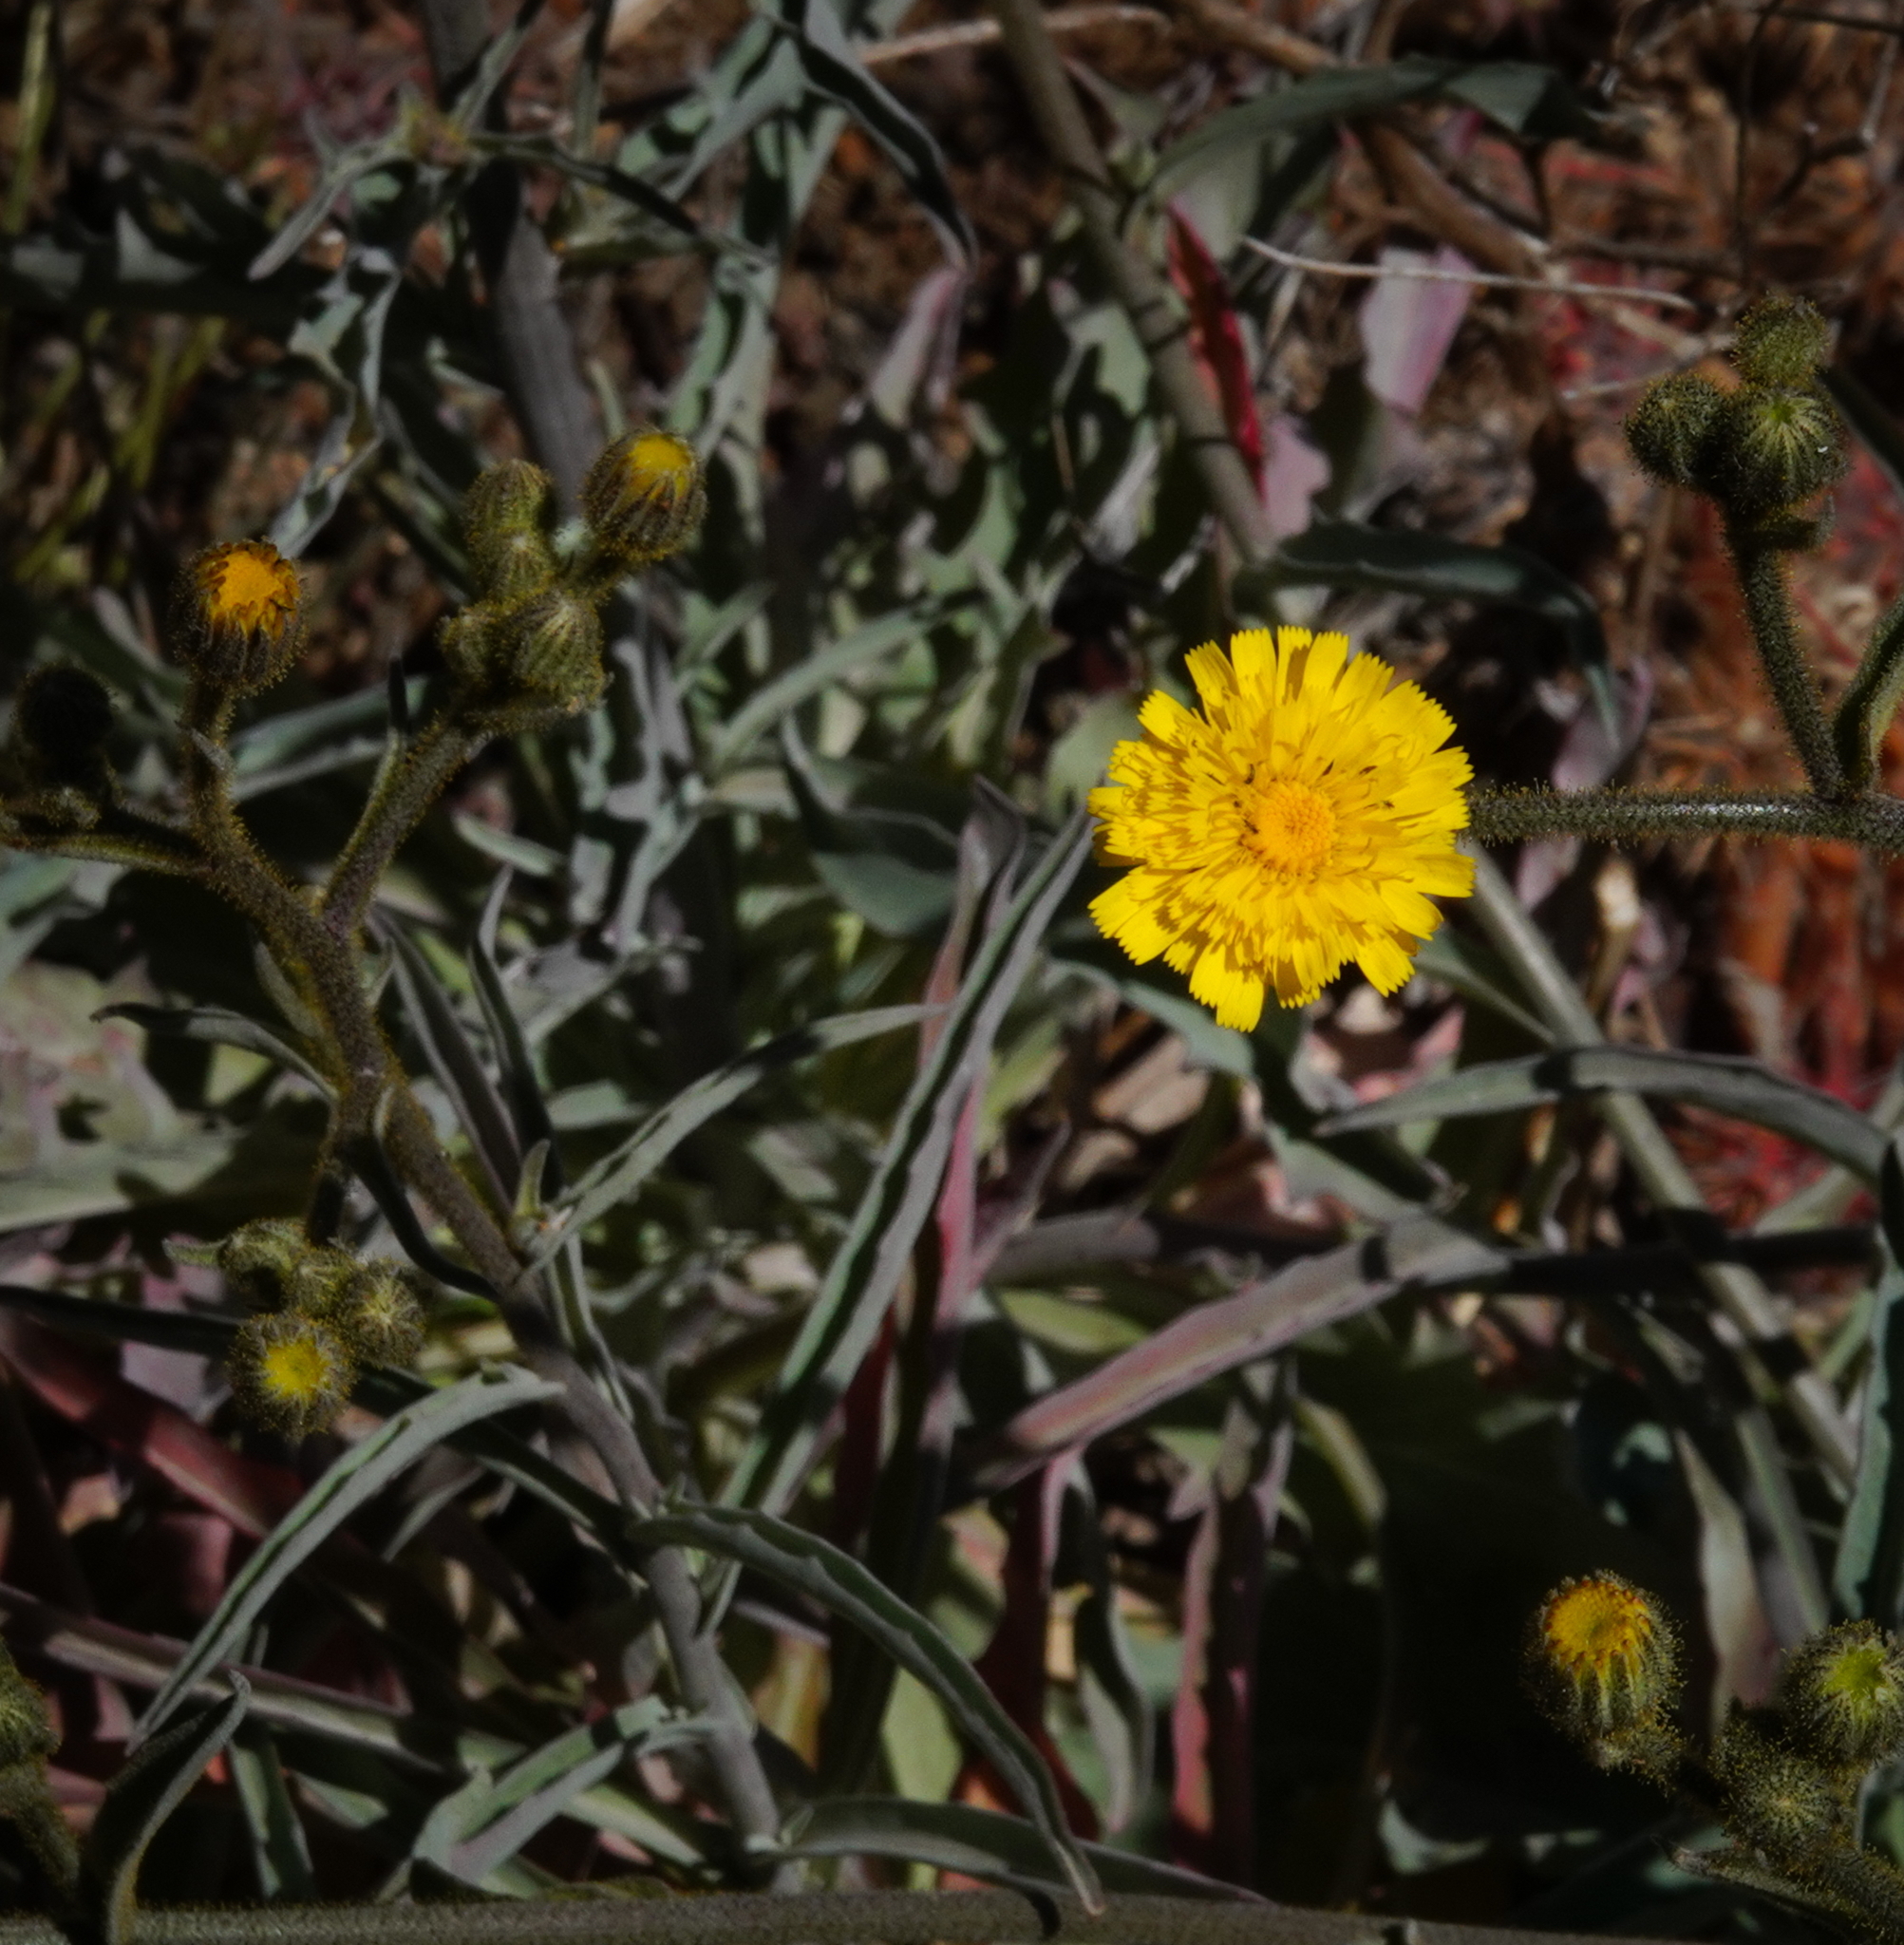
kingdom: Plantae
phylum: Tracheophyta
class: Magnoliopsida
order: Asterales
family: Asteraceae
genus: Andryala
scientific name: Andryala glandulosa
